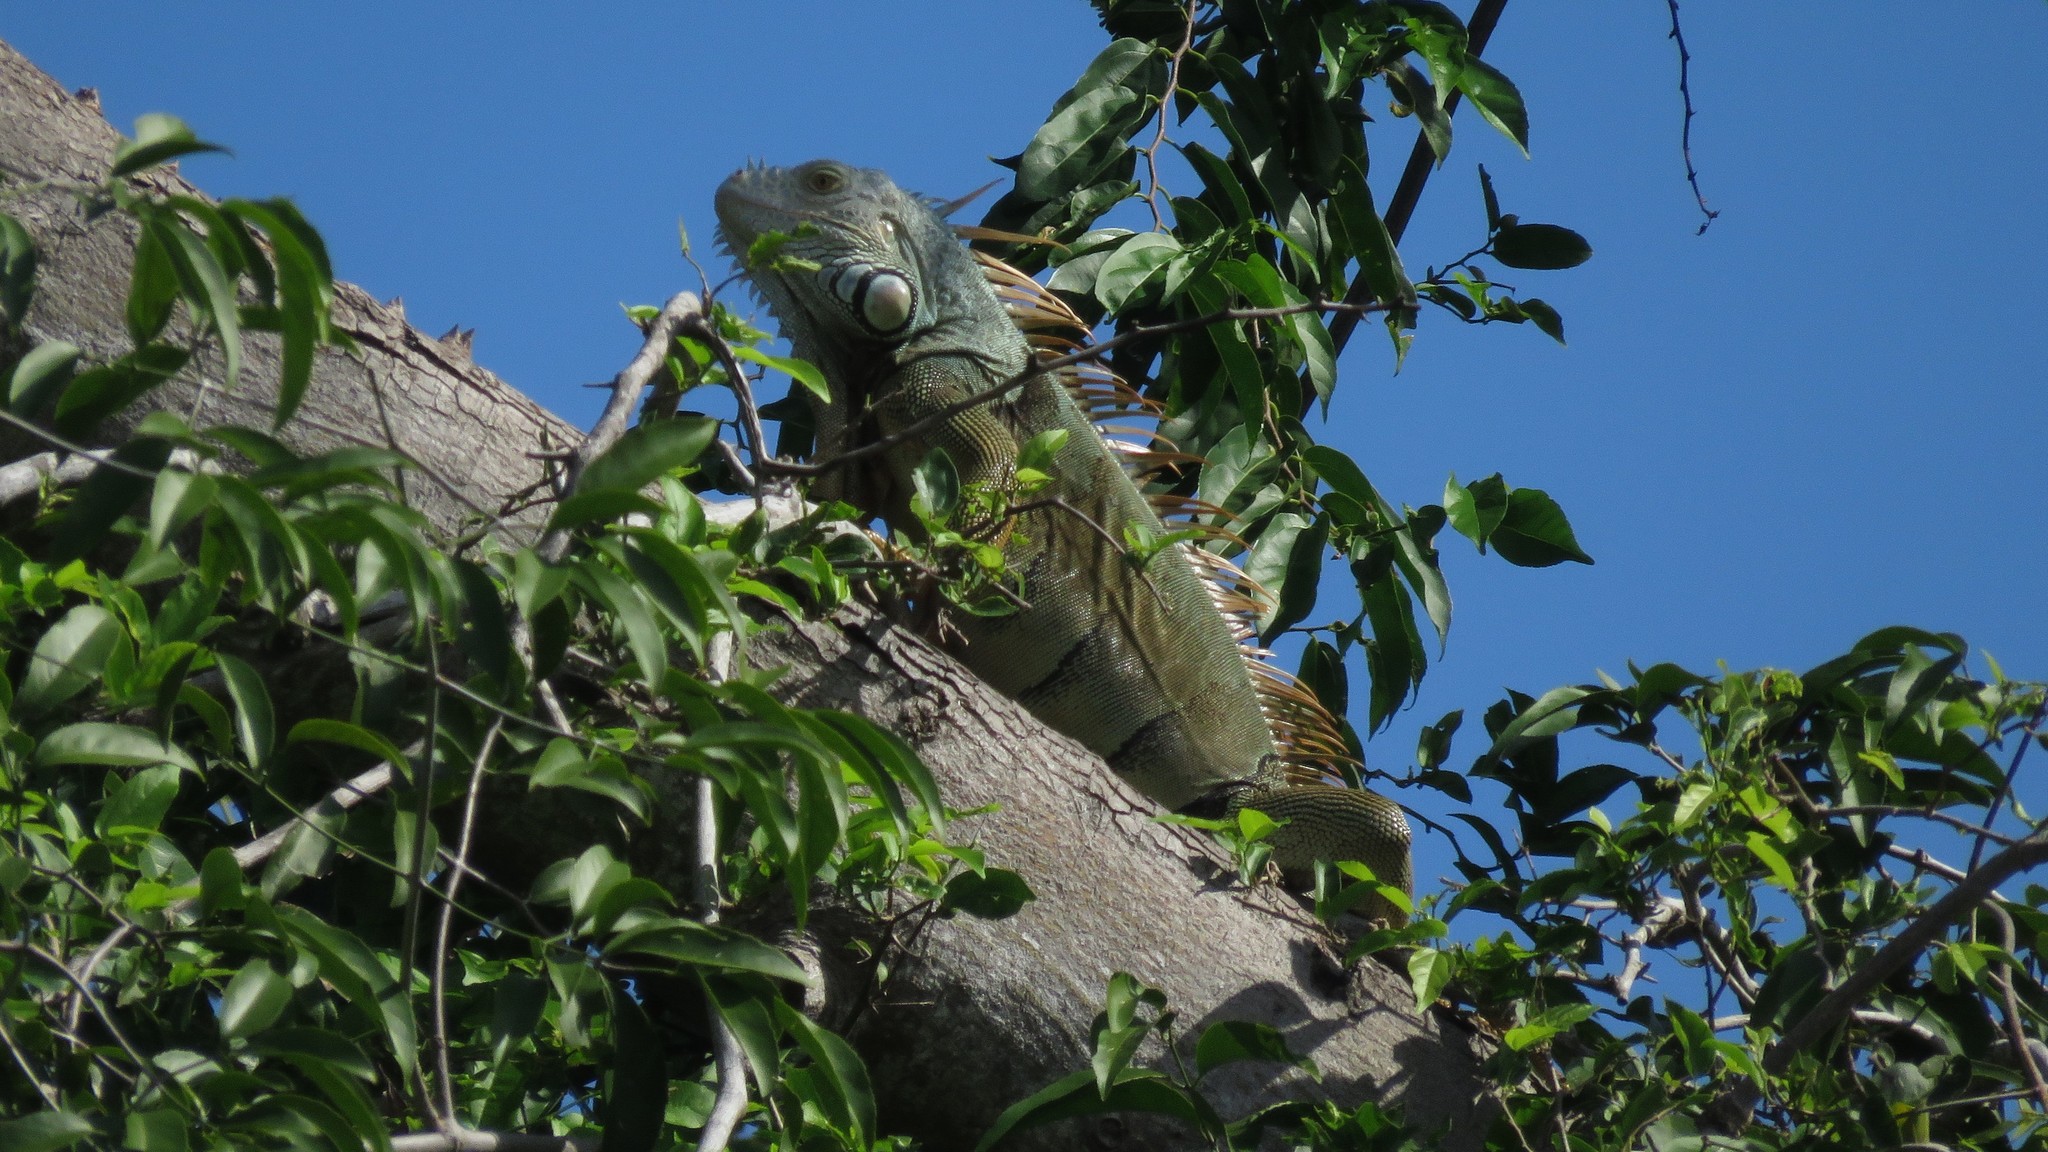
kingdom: Animalia
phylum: Chordata
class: Squamata
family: Iguanidae
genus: Iguana
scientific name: Iguana iguana
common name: Green iguana
